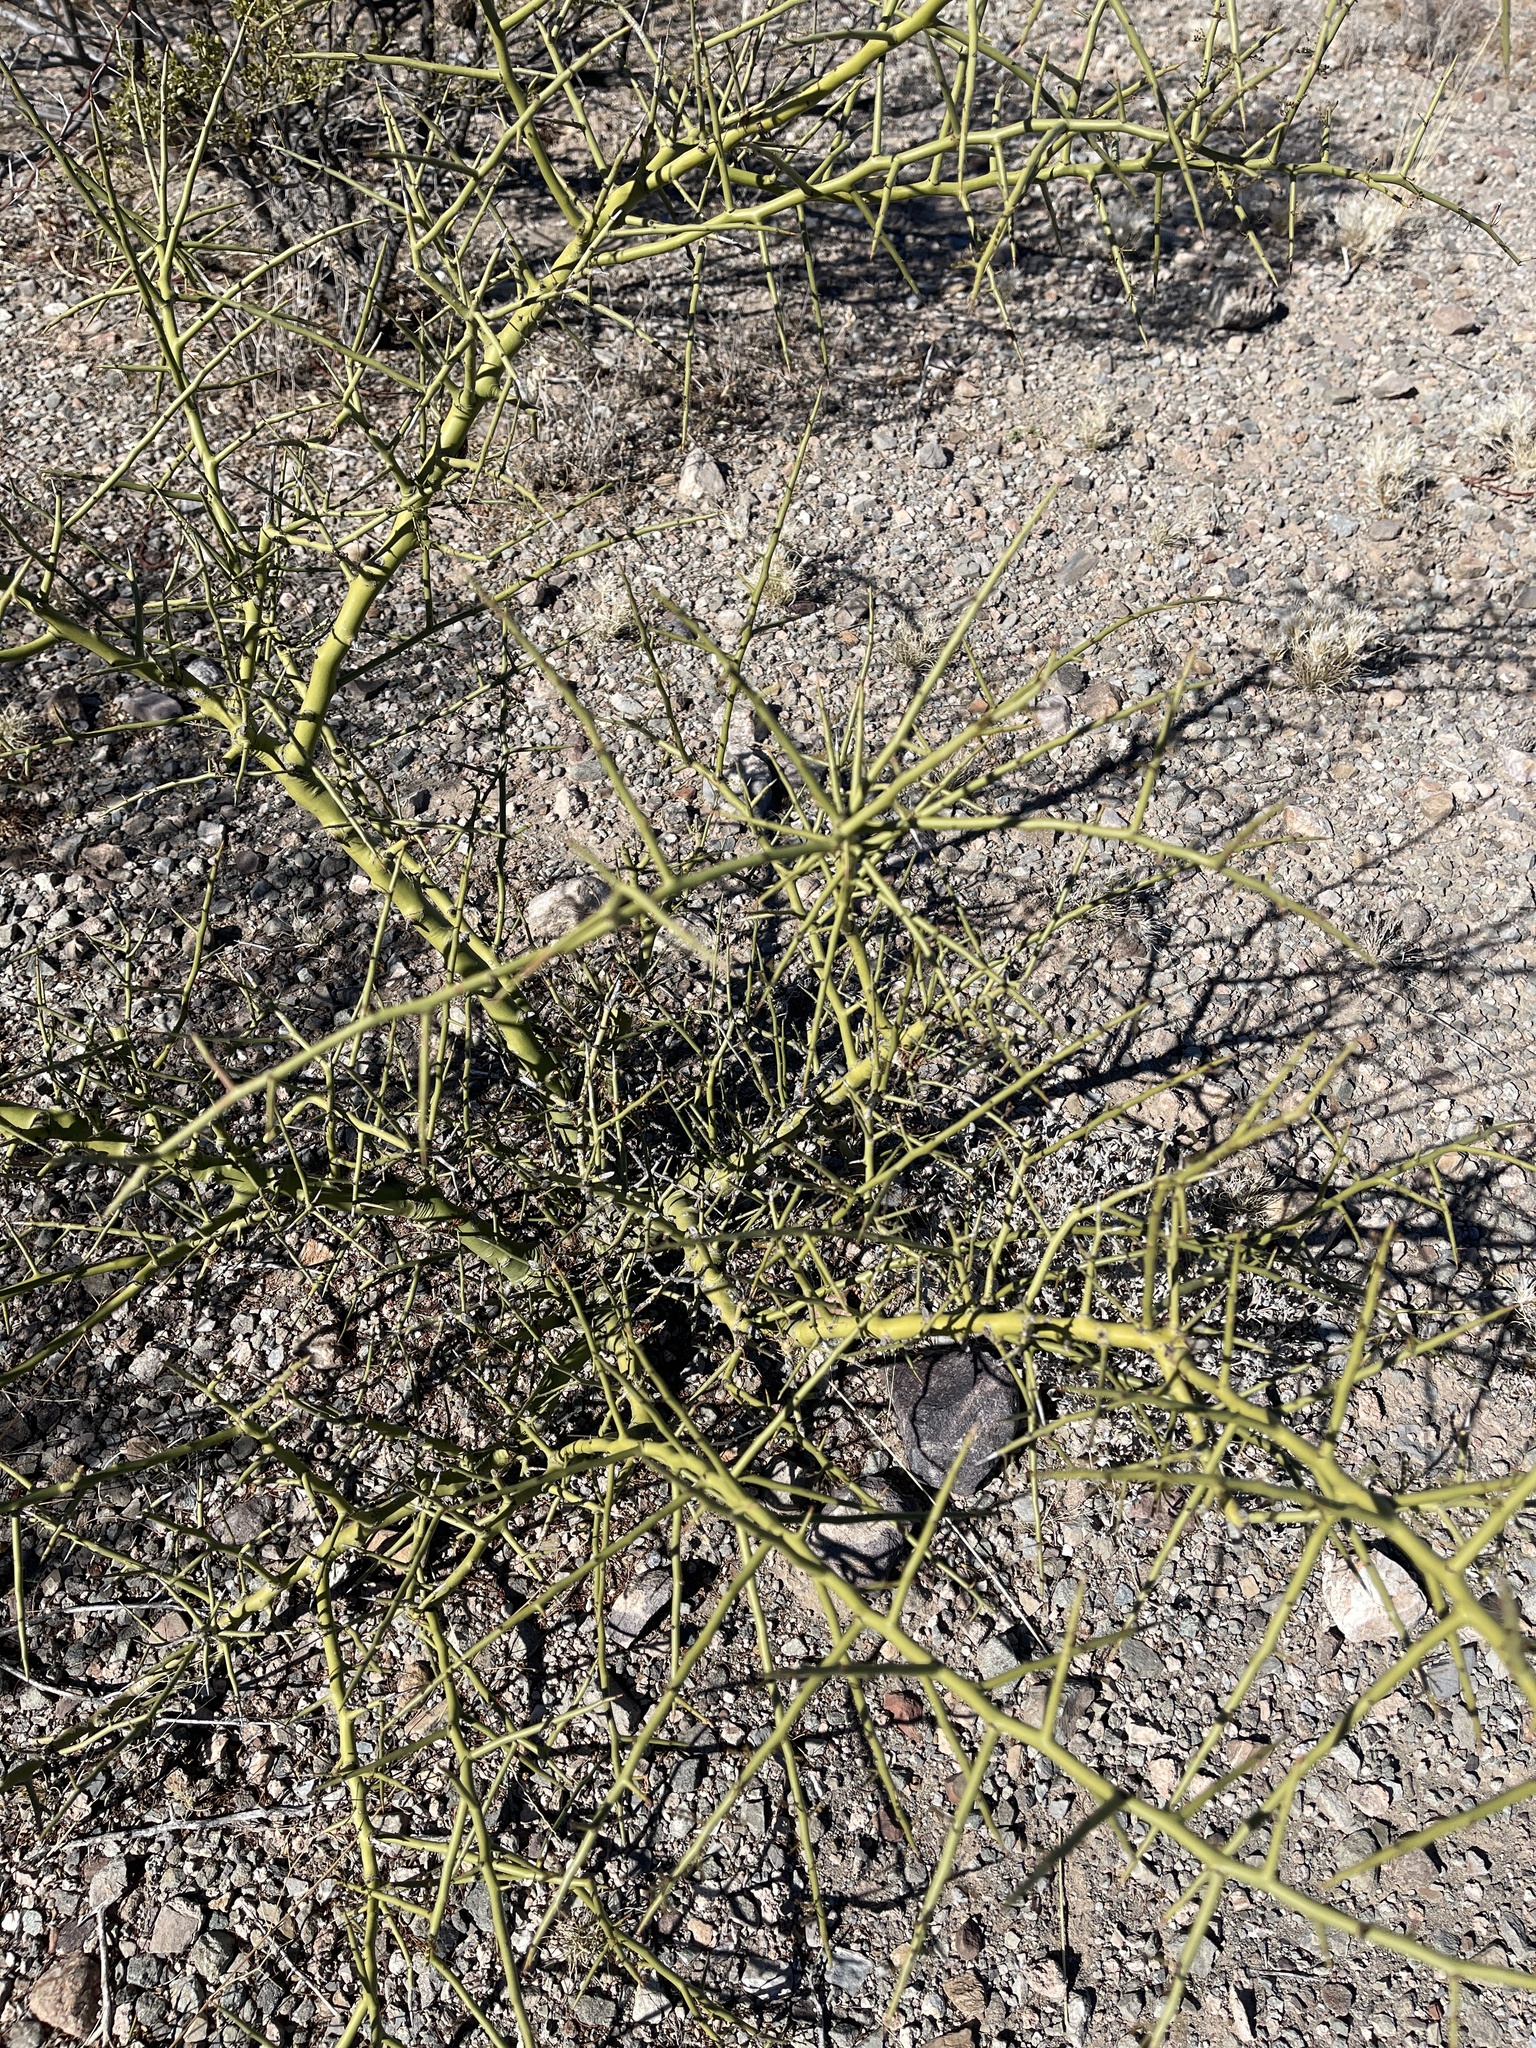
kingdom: Plantae
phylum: Tracheophyta
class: Magnoliopsida
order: Fabales
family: Fabaceae
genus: Parkinsonia
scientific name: Parkinsonia microphylla
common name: Yellow paloverde
